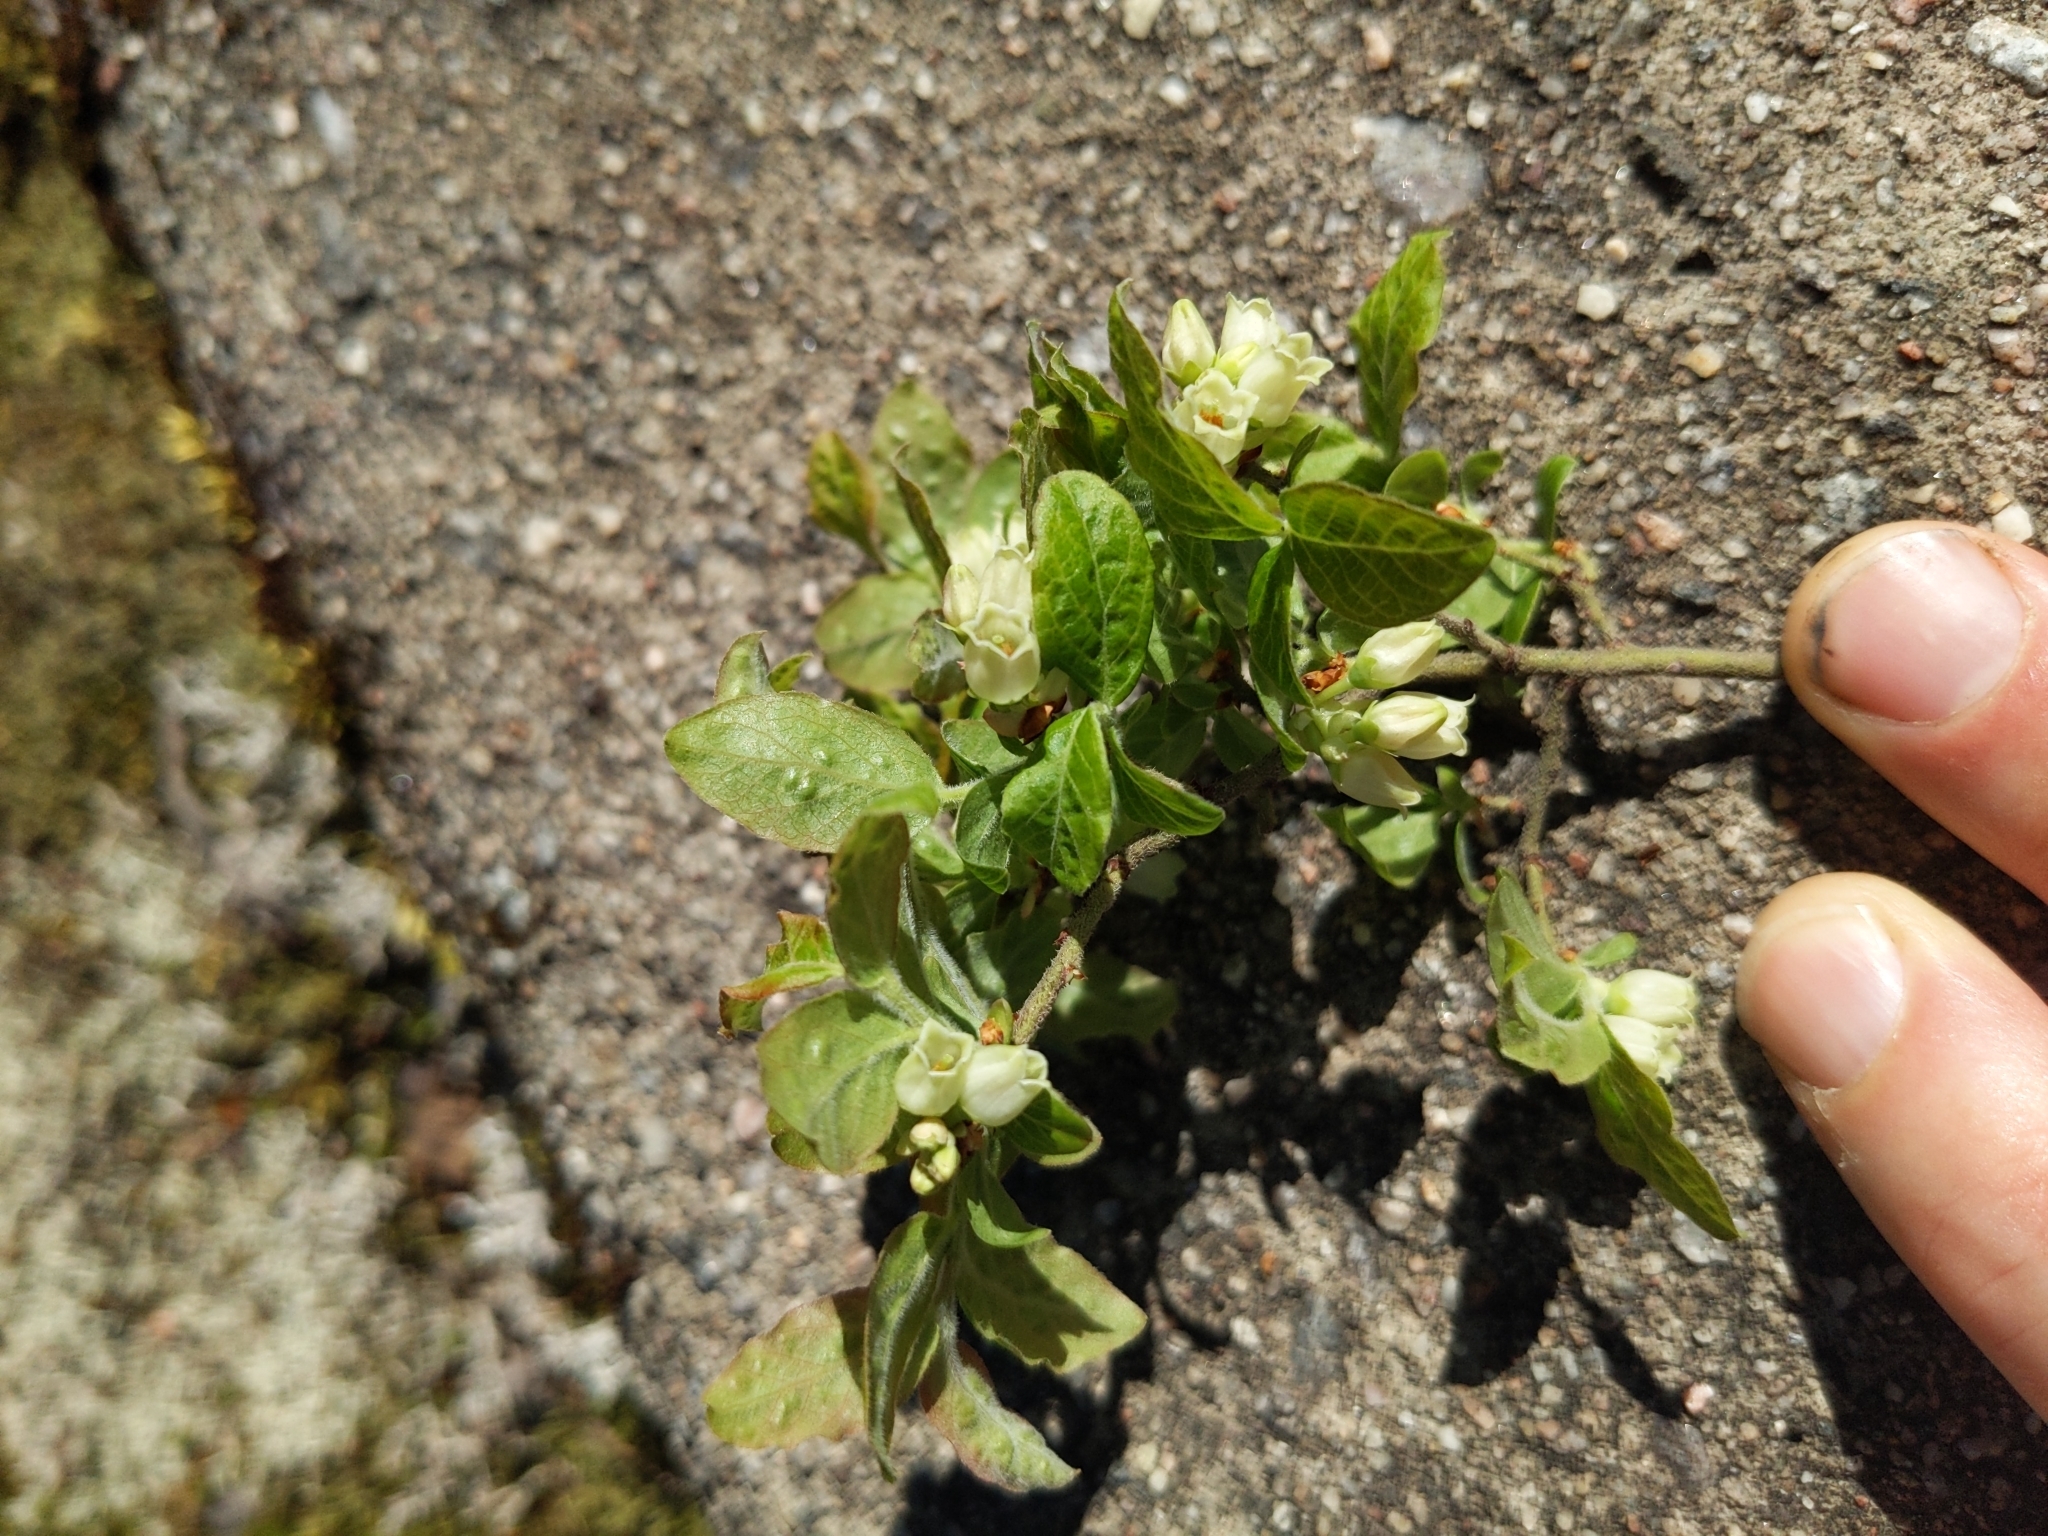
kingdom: Plantae
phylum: Tracheophyta
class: Magnoliopsida
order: Ericales
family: Ericaceae
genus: Vaccinium
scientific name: Vaccinium myrtilloides
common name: Canada blueberry
